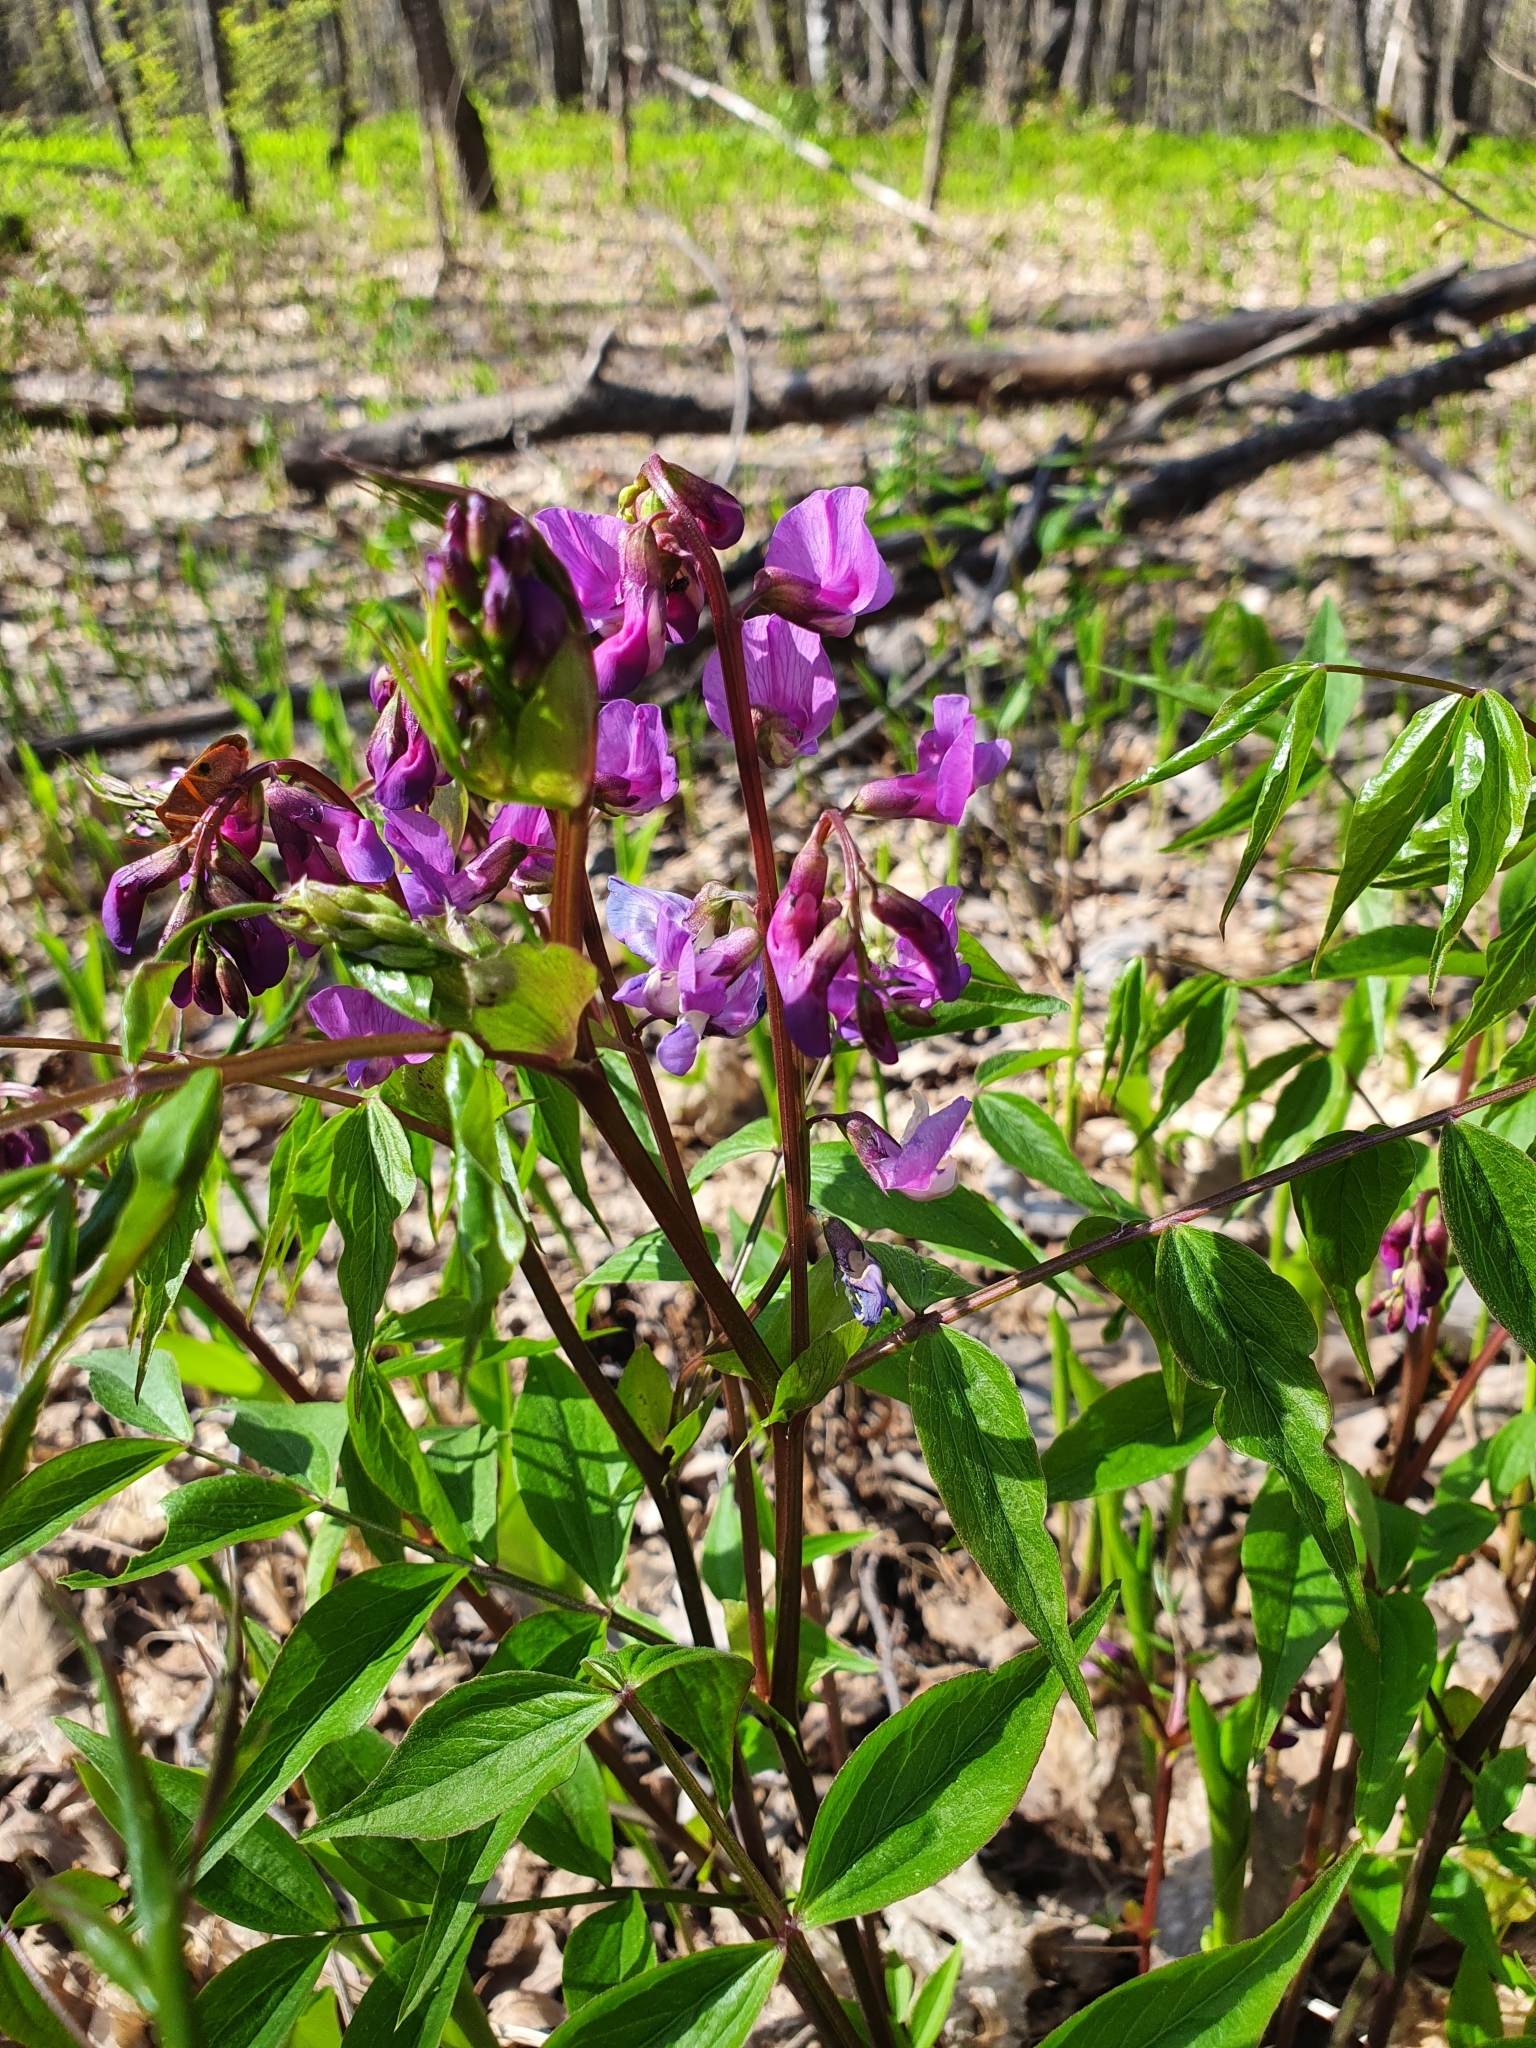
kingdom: Plantae
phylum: Tracheophyta
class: Magnoliopsida
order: Fabales
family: Fabaceae
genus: Lathyrus
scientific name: Lathyrus vernus
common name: Spring pea
